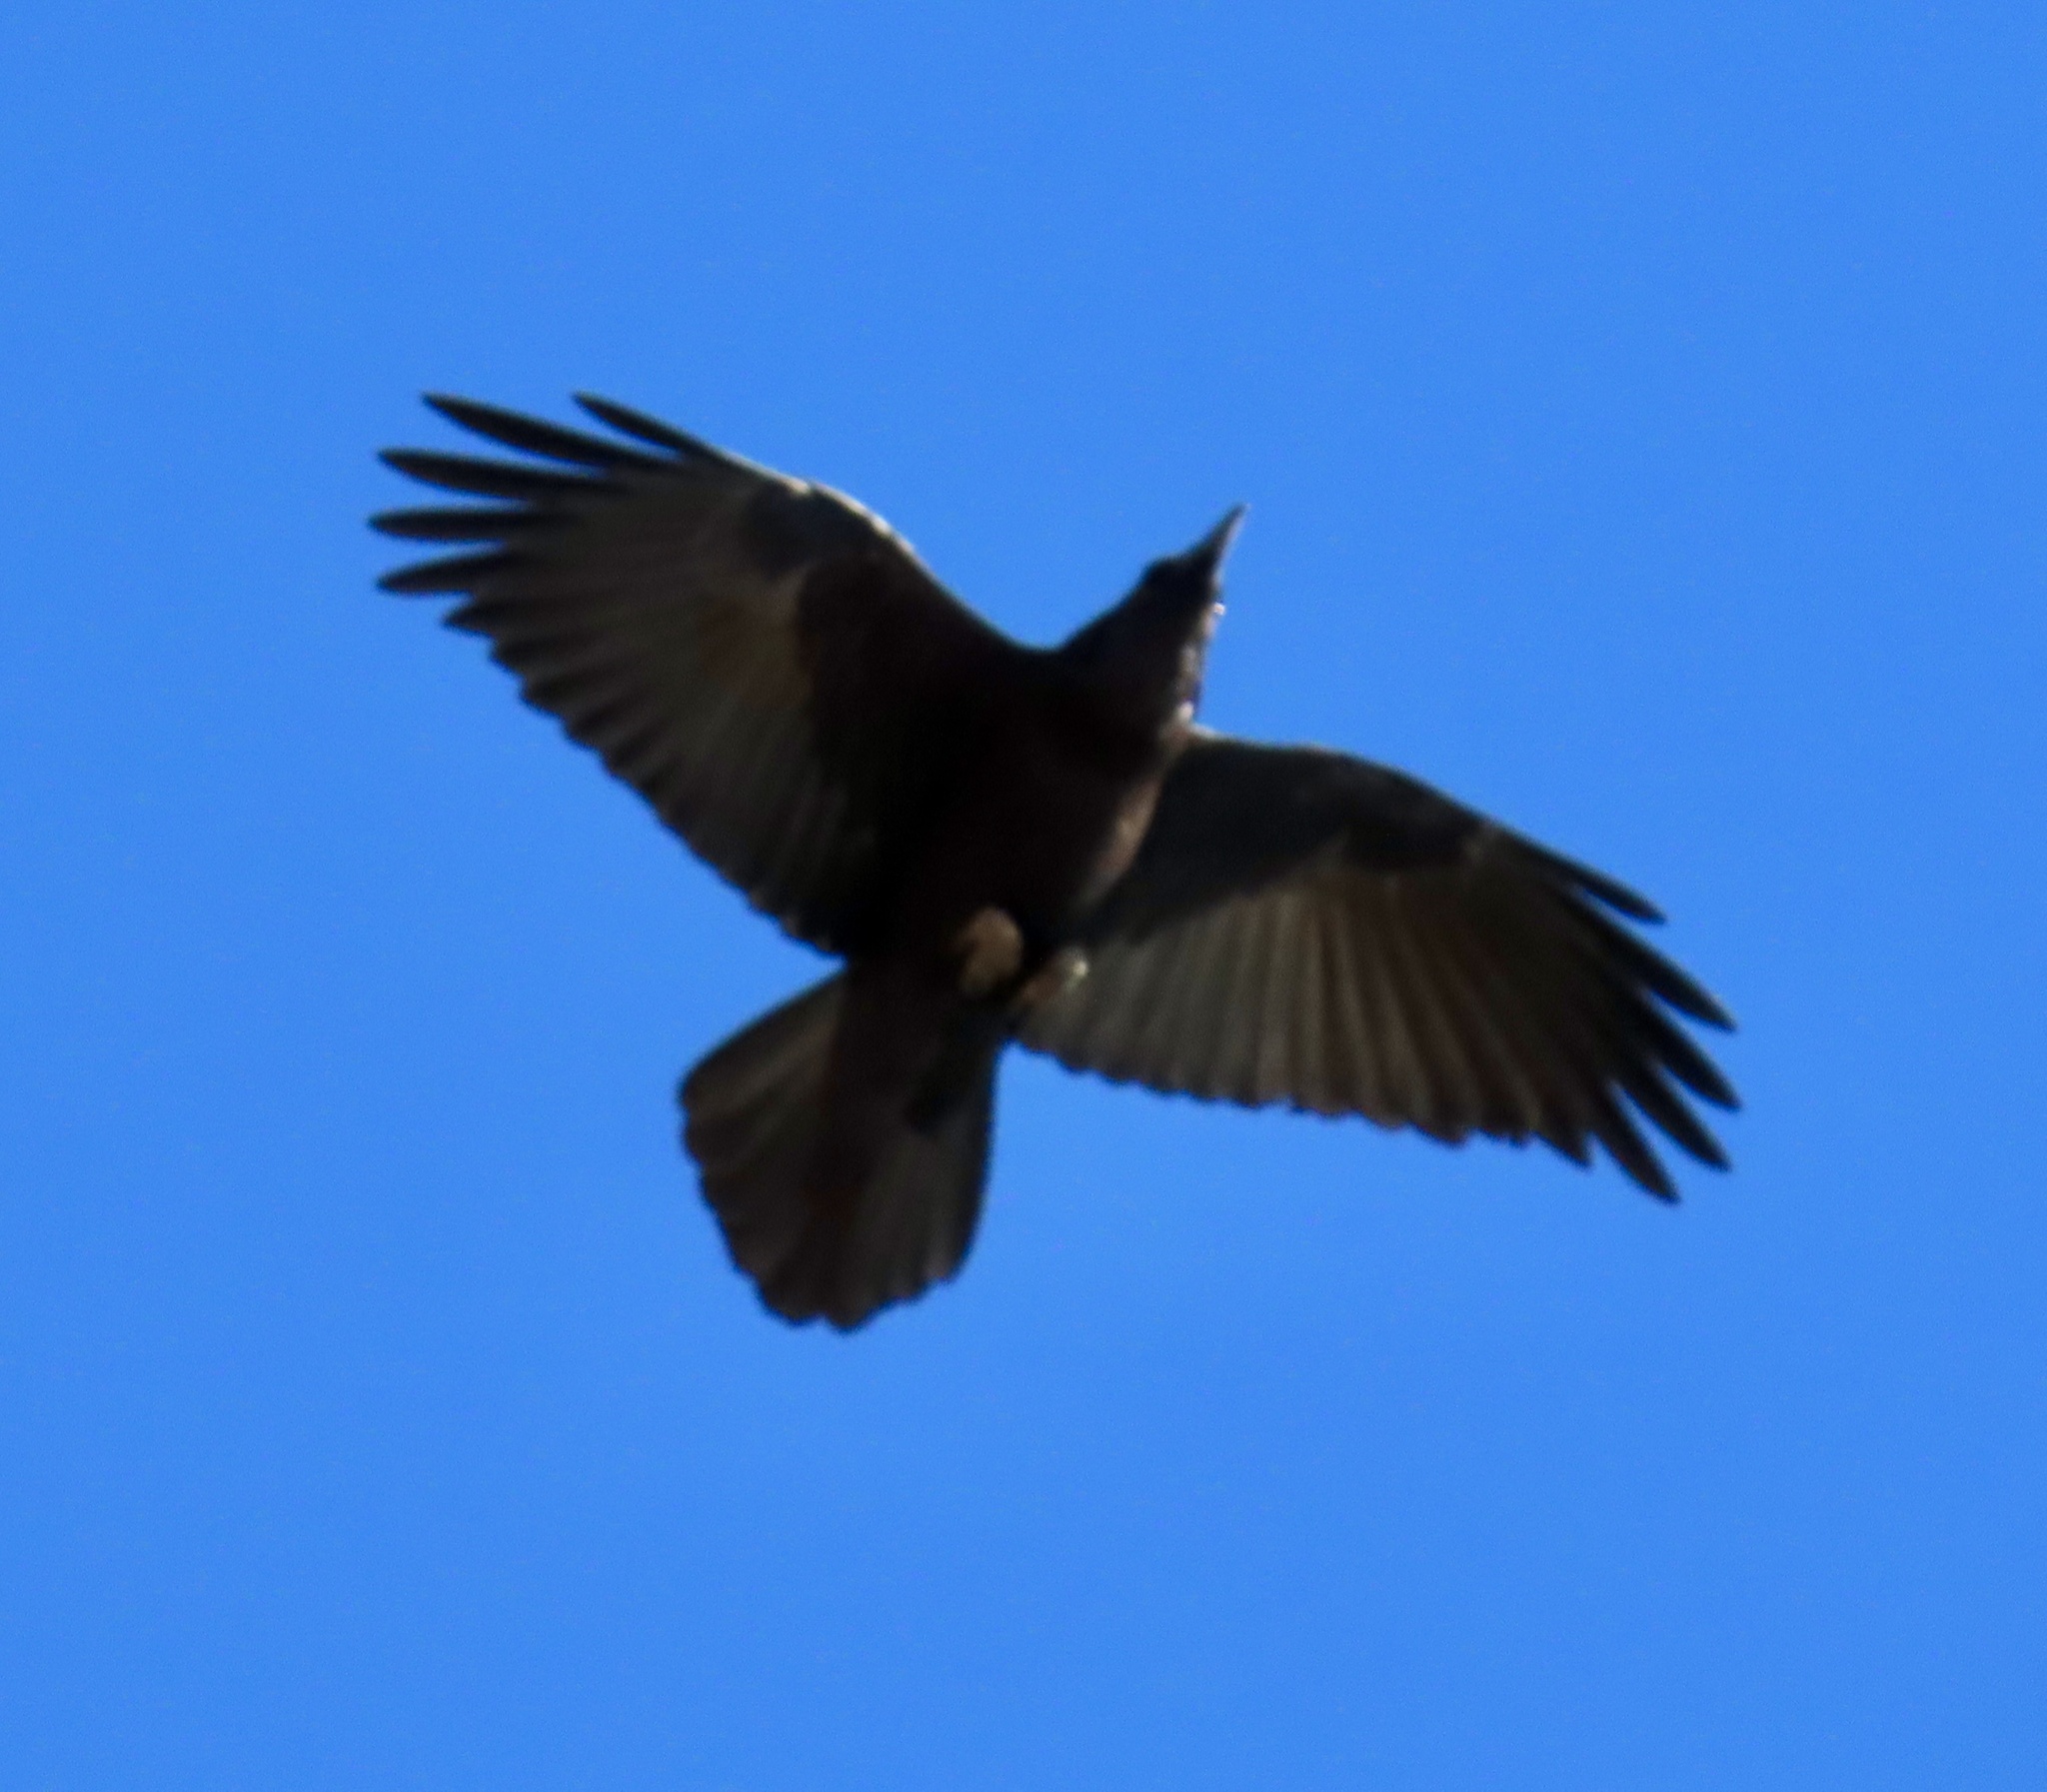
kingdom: Animalia
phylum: Chordata
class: Aves
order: Passeriformes
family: Corvidae
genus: Corvus
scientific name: Corvus corax
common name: Common raven
